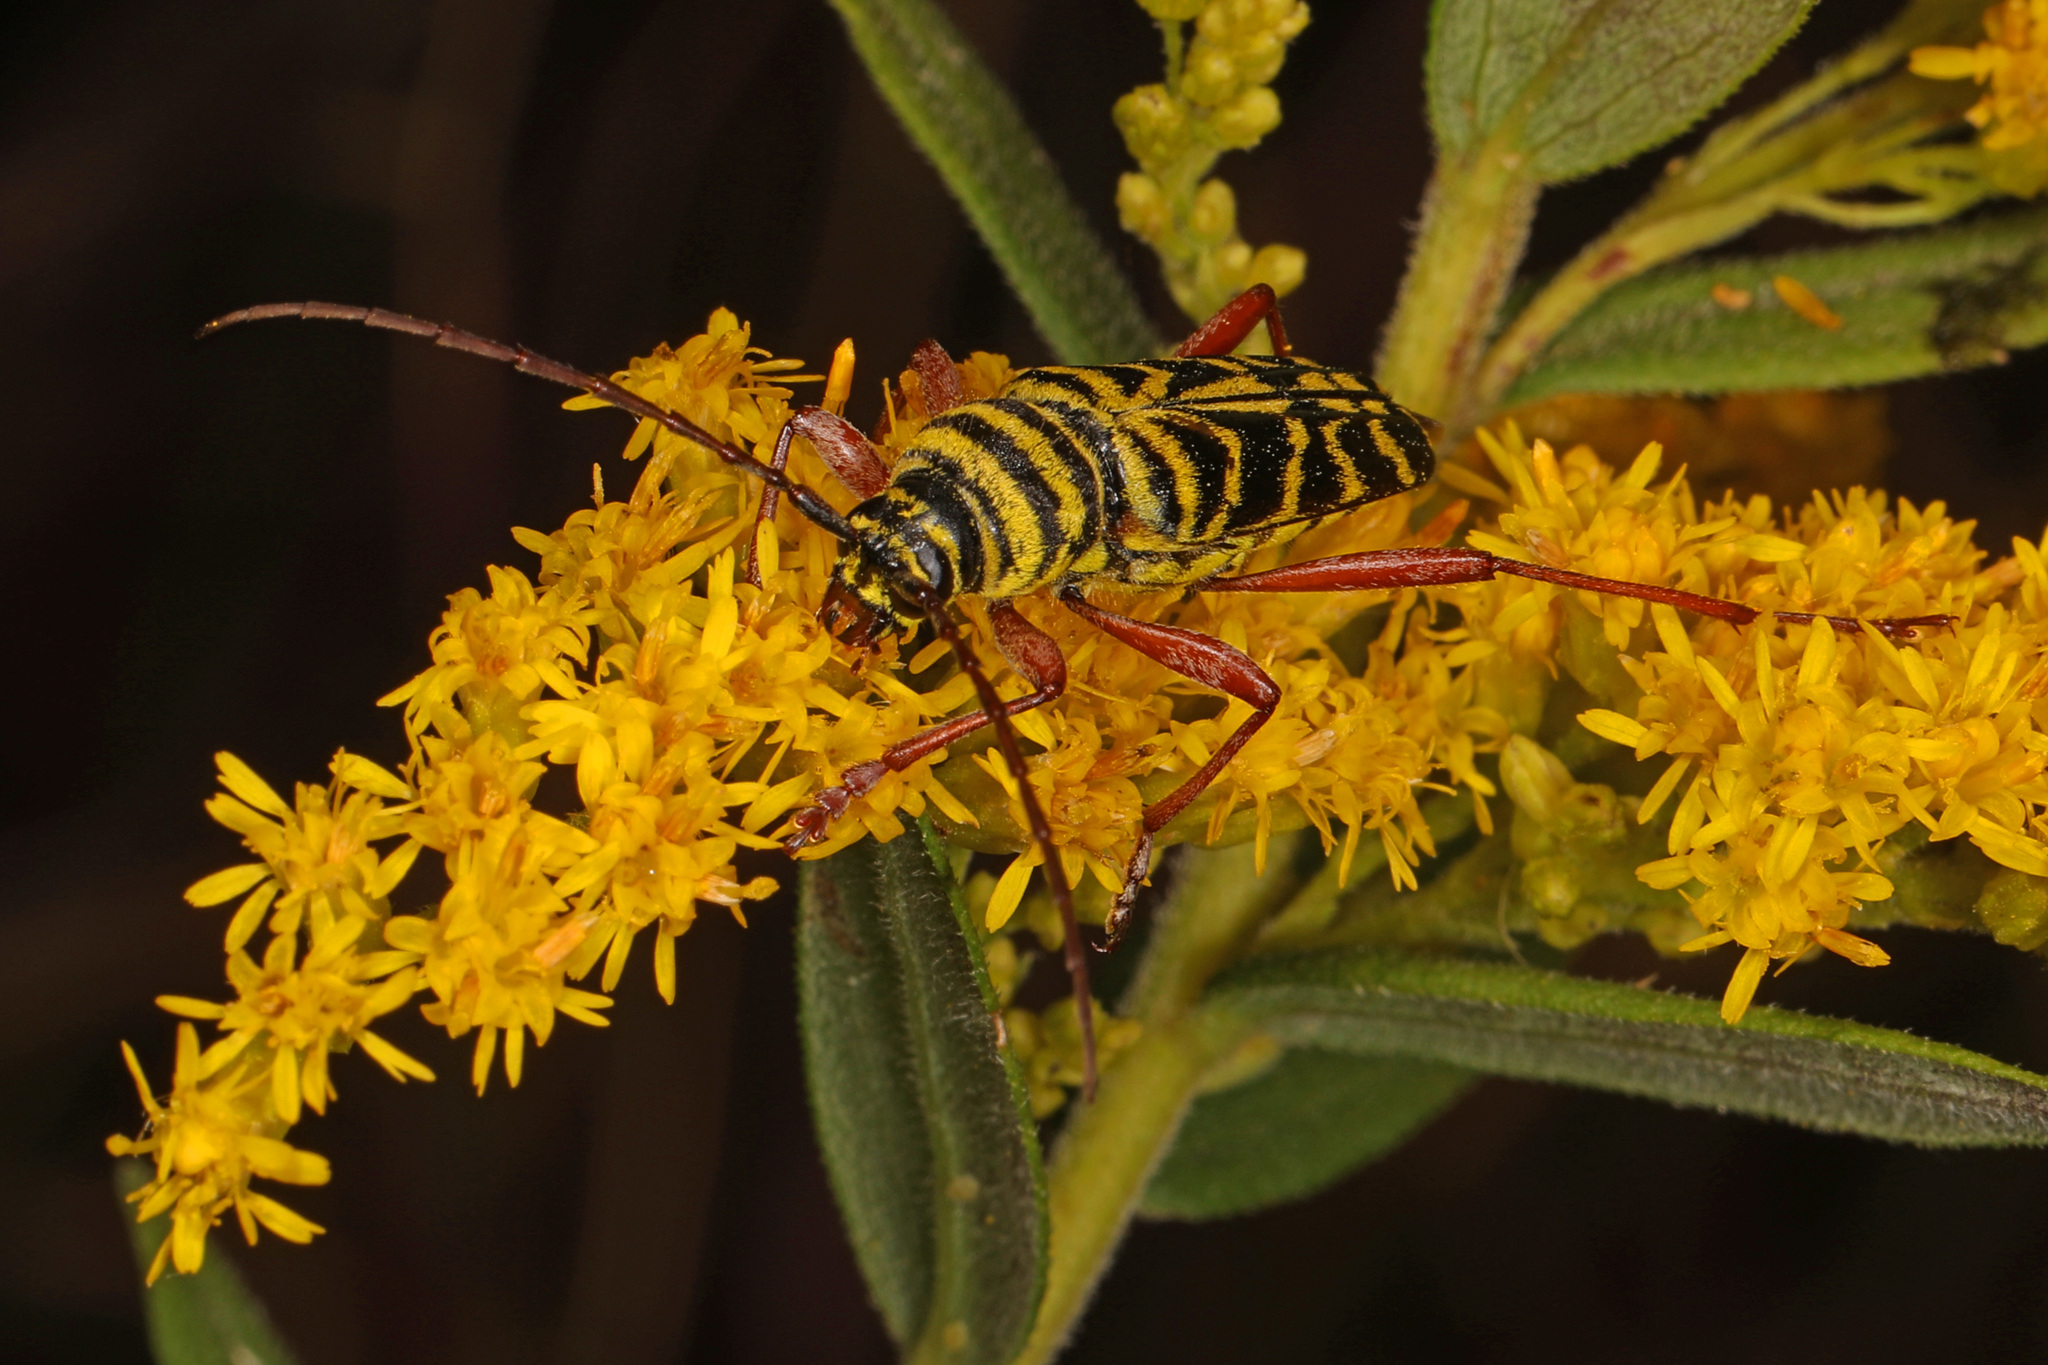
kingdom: Animalia
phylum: Arthropoda
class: Insecta
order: Coleoptera
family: Cerambycidae
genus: Megacyllene
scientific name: Megacyllene robiniae
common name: Locust borer
